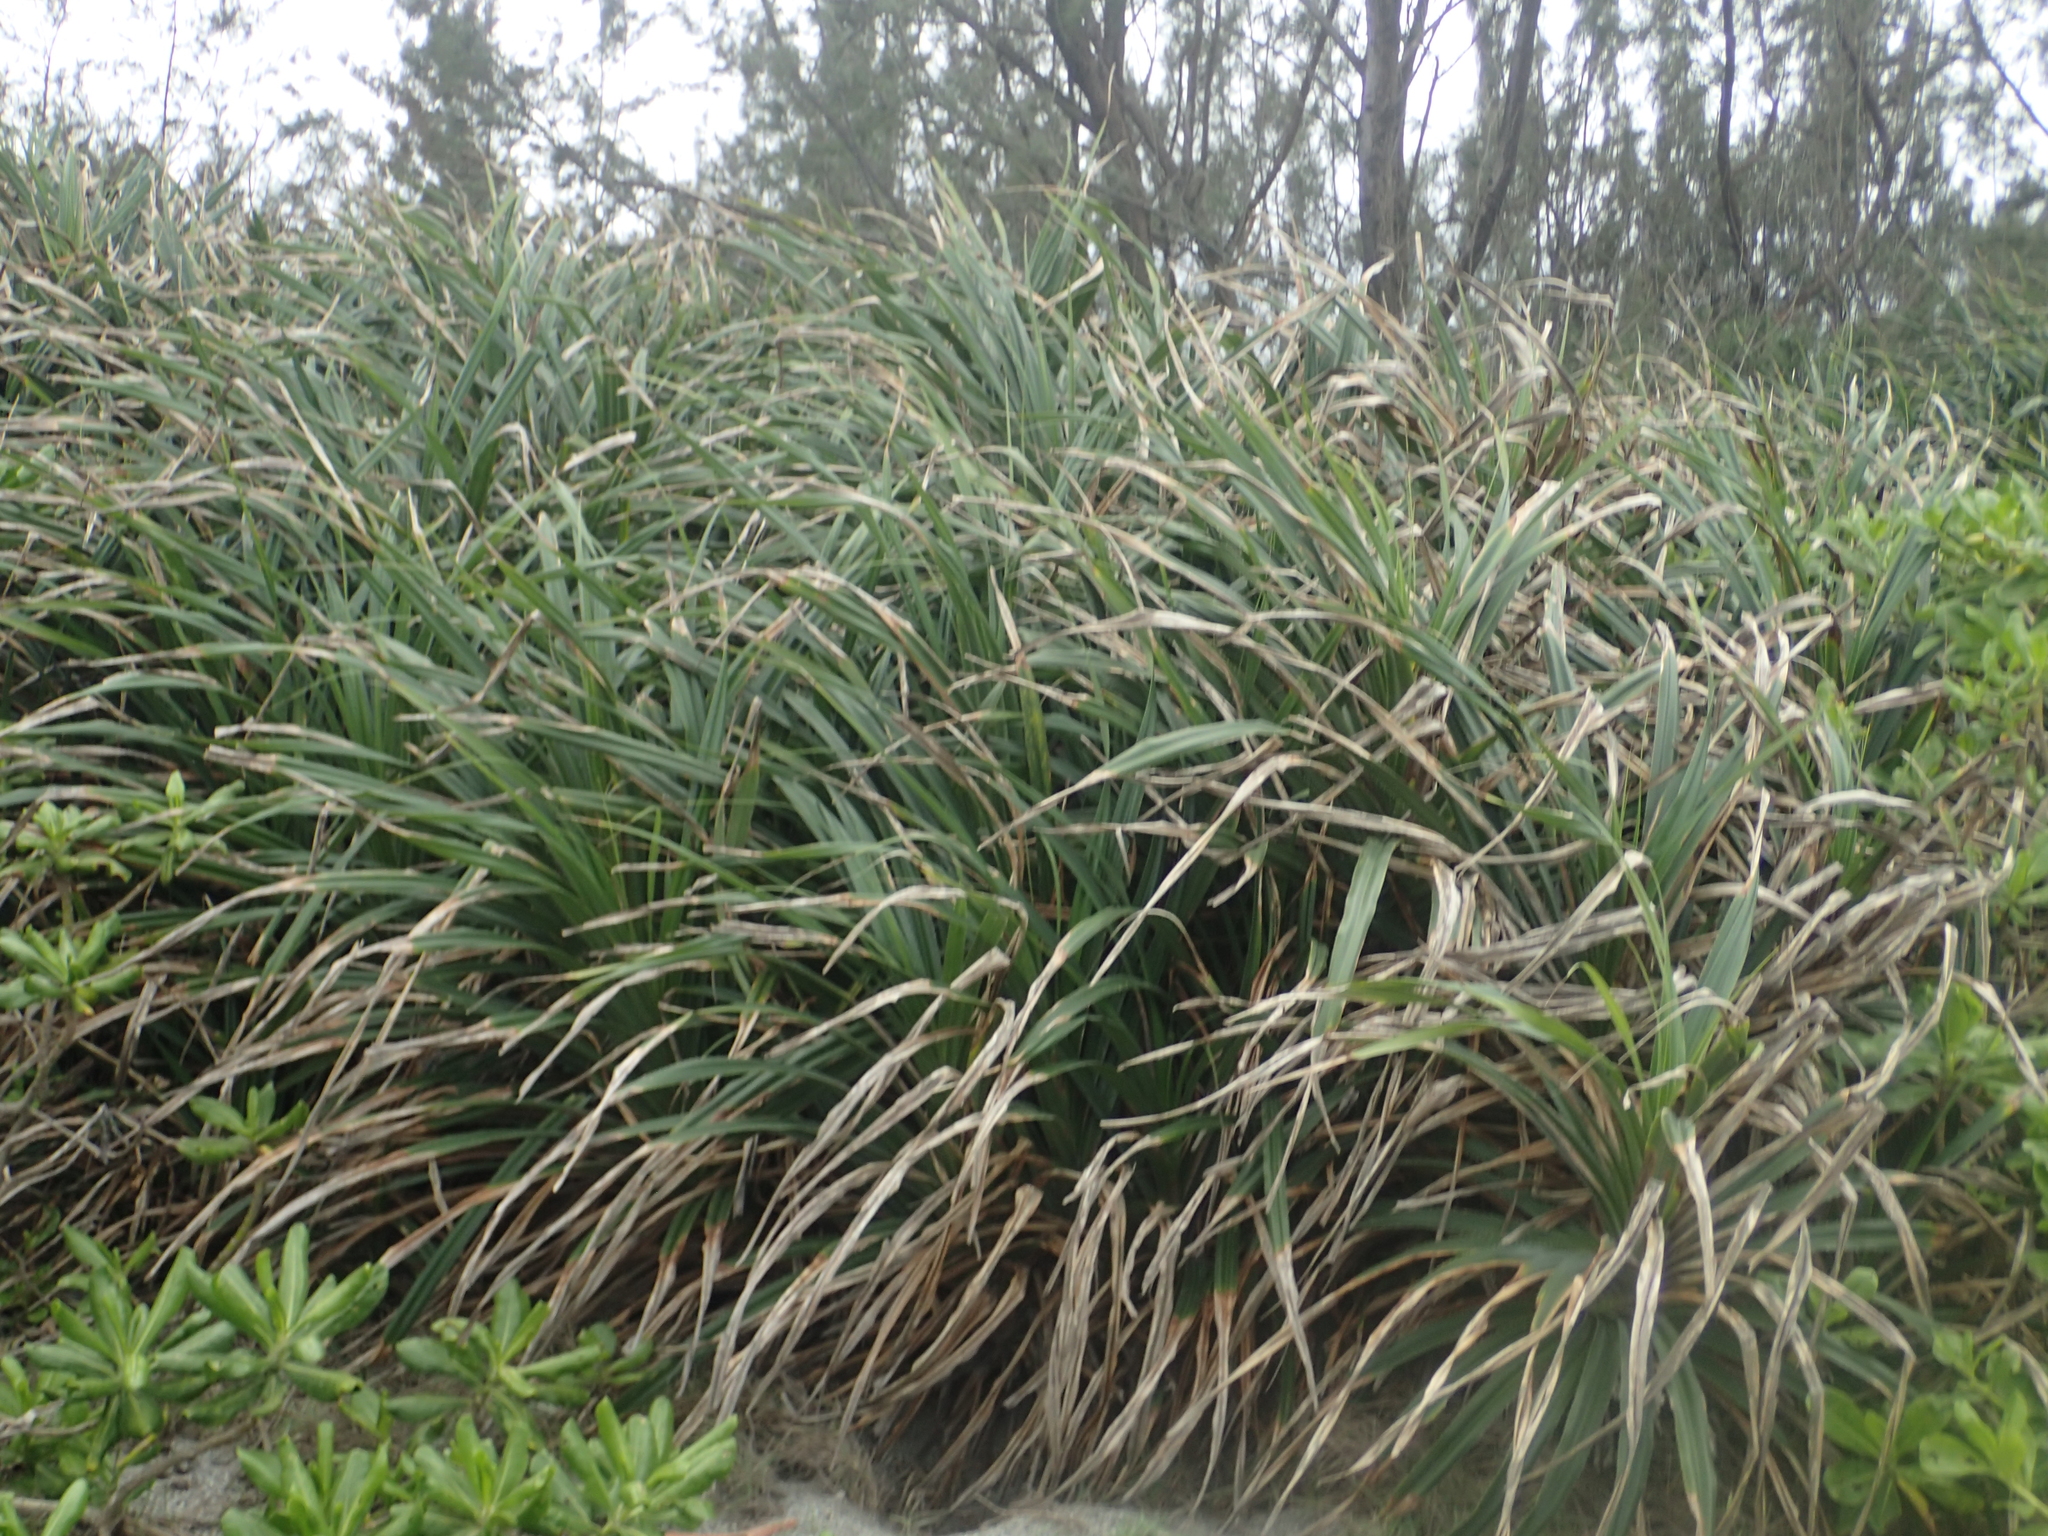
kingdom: Plantae
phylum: Tracheophyta
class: Liliopsida
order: Pandanales
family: Pandanaceae
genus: Pandanus
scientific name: Pandanus odorifer
